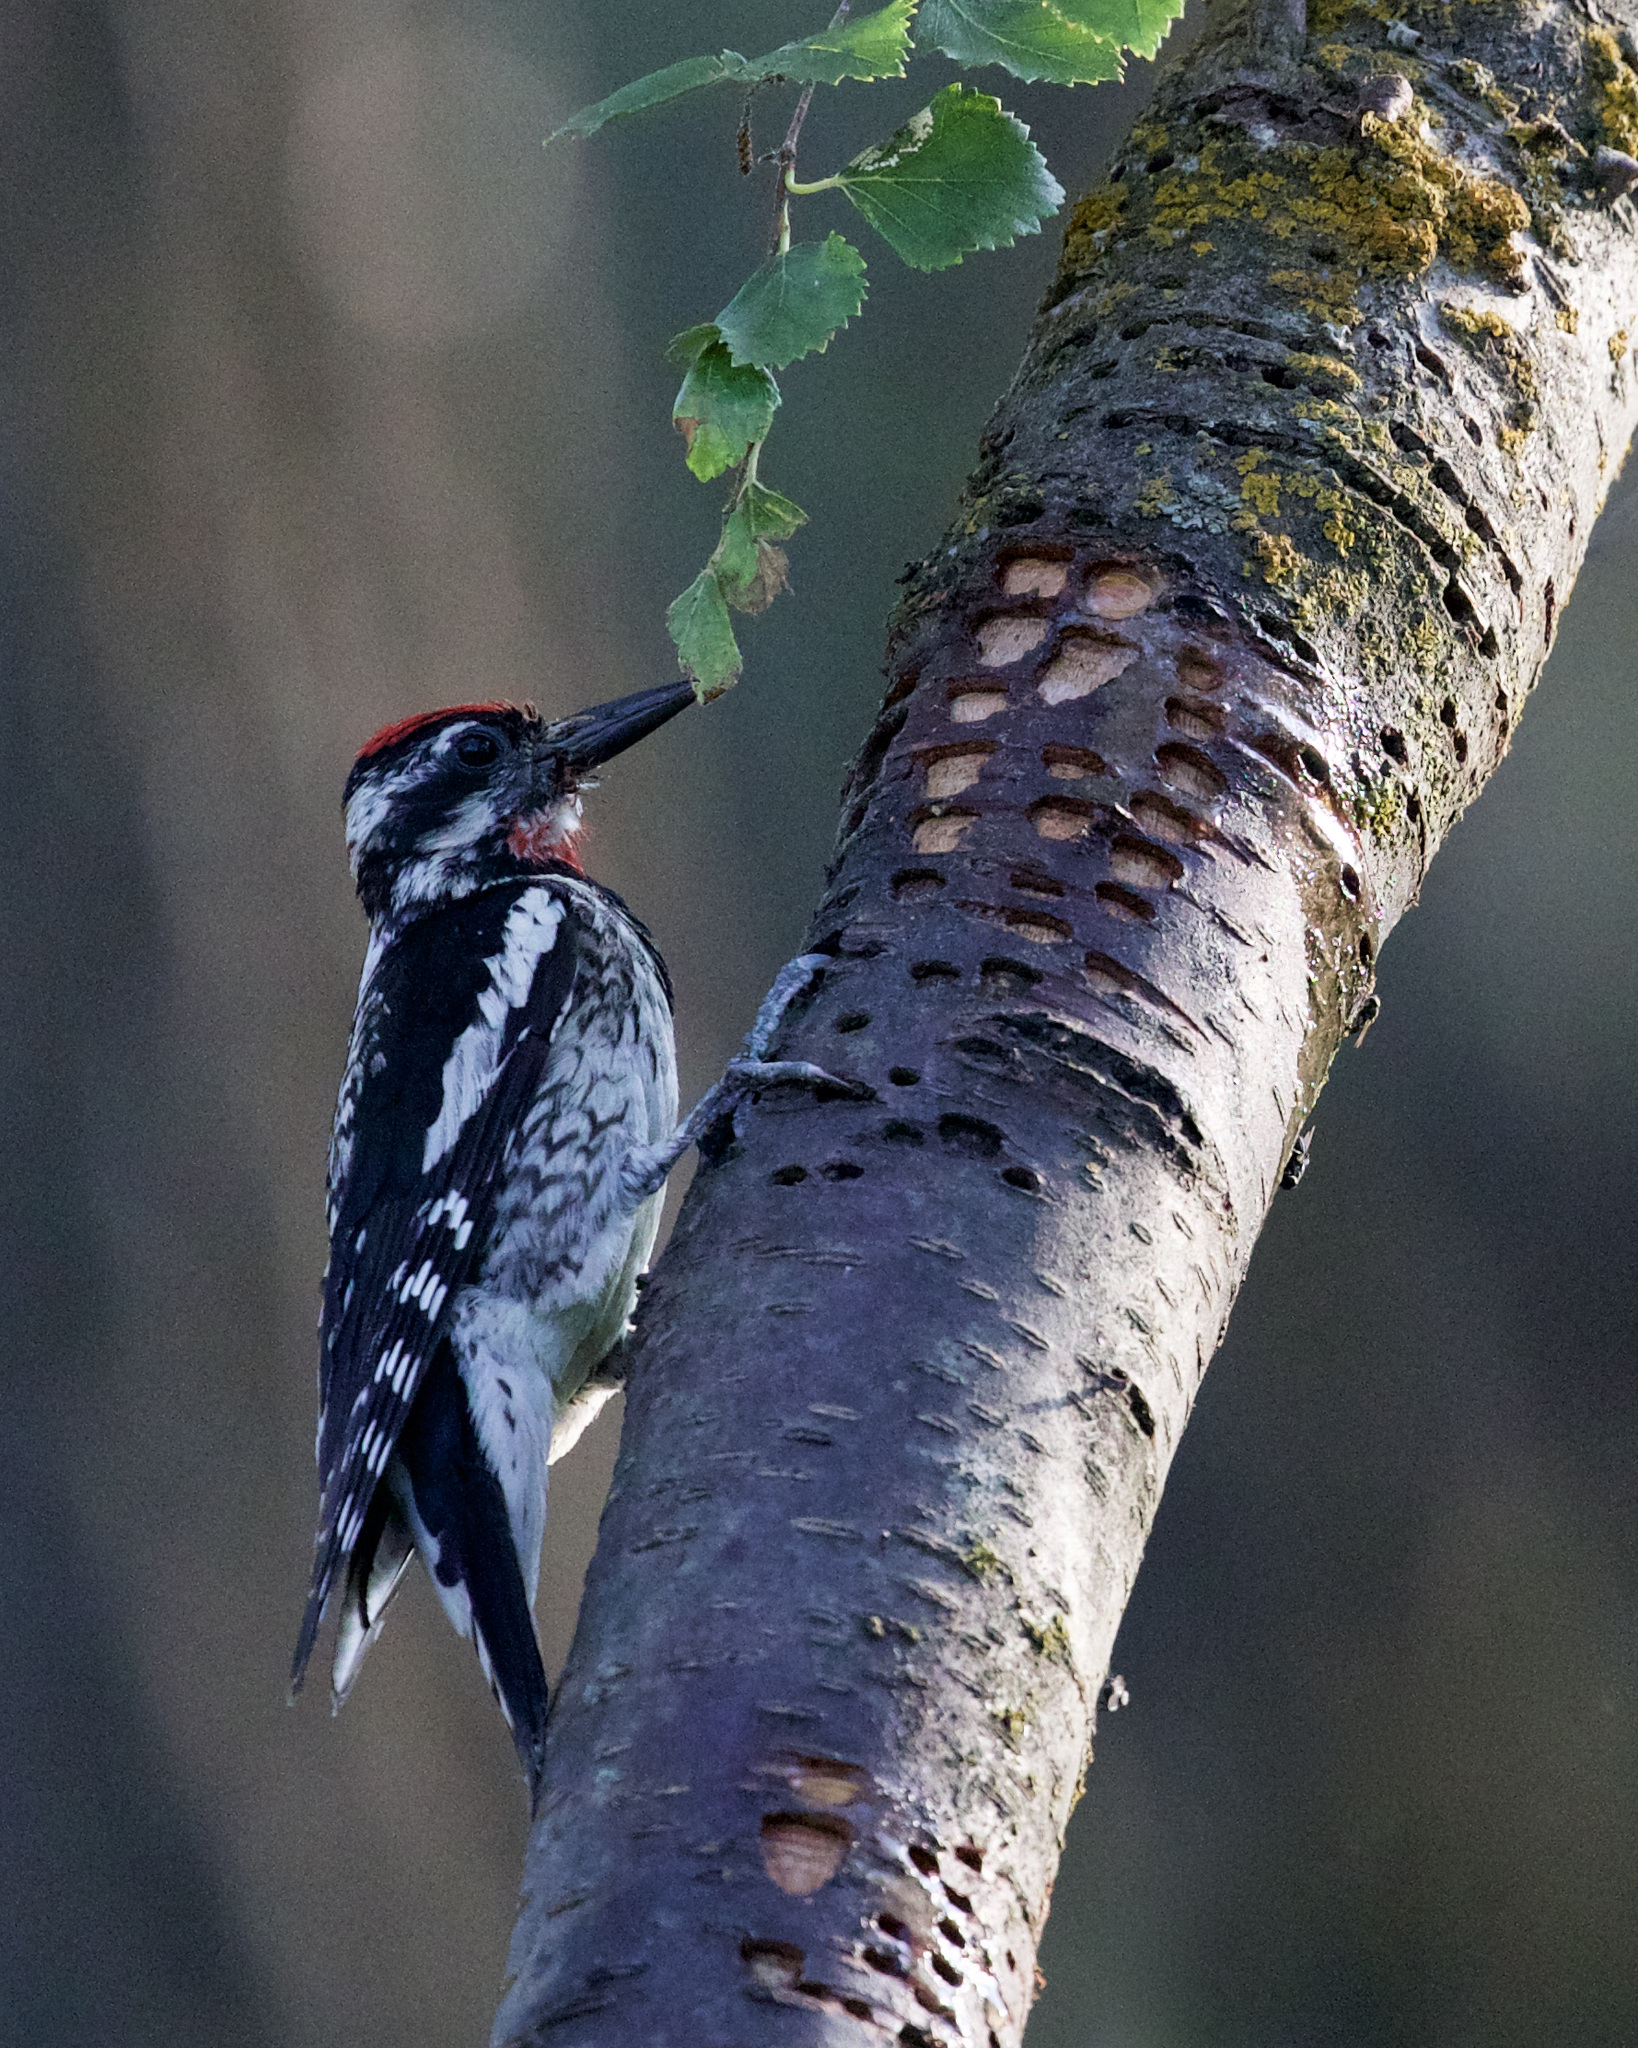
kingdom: Animalia
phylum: Chordata
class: Aves
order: Piciformes
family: Picidae
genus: Sphyrapicus
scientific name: Sphyrapicus nuchalis
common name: Red-naped sapsucker
